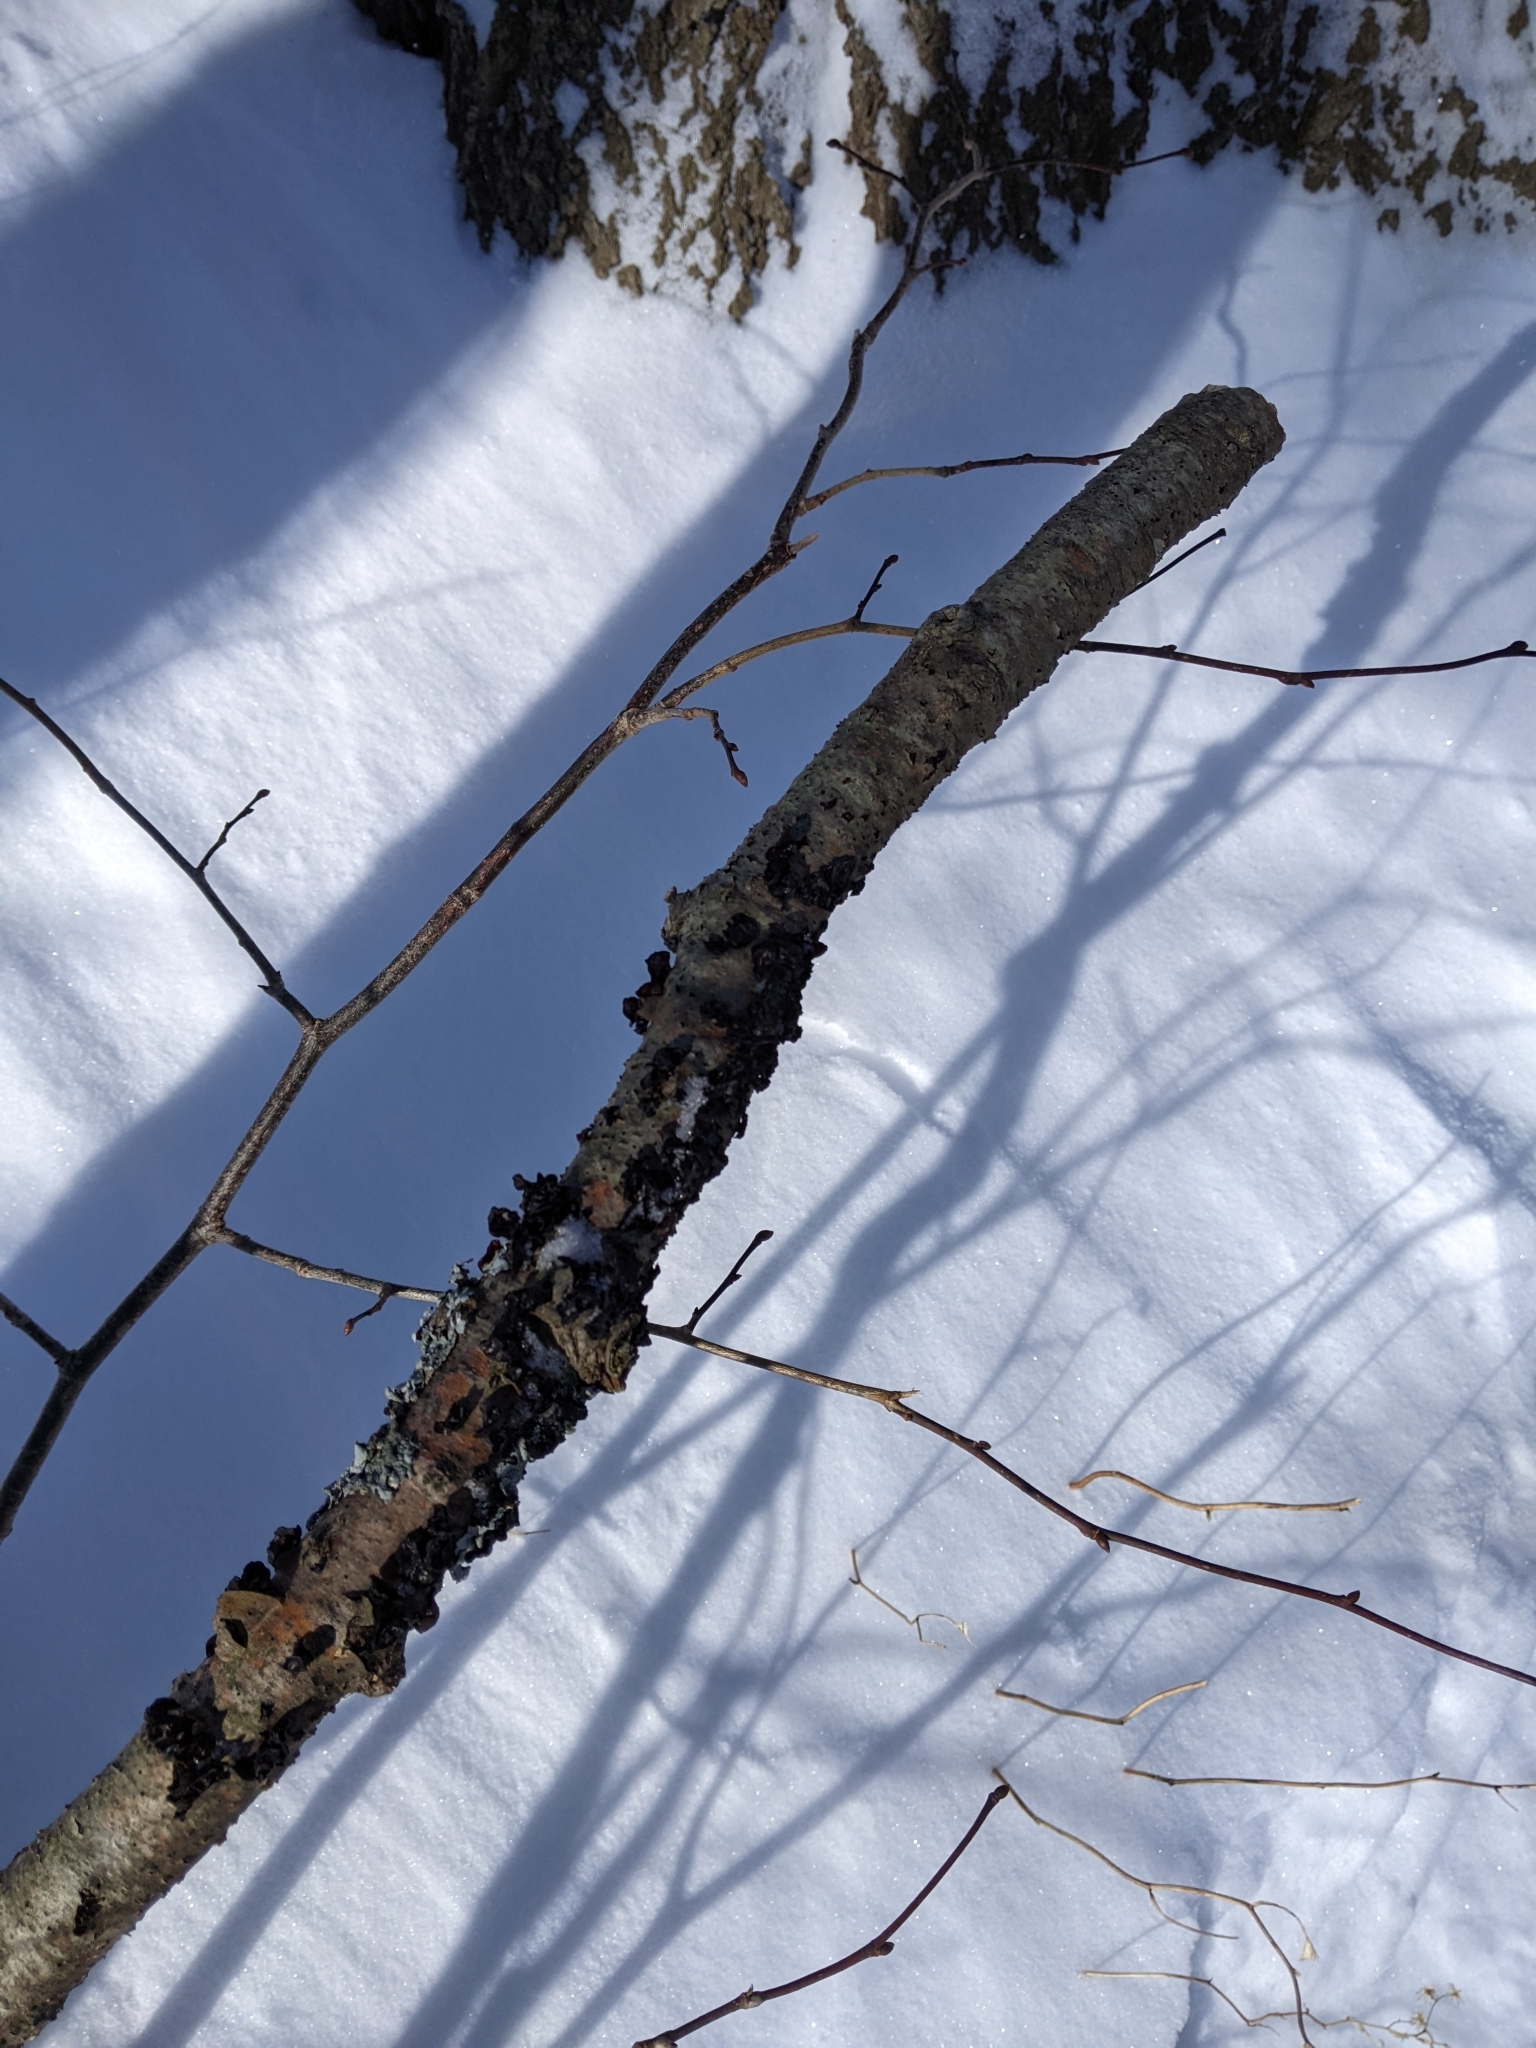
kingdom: Fungi
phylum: Basidiomycota
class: Agaricomycetes
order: Auriculariales
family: Auriculariaceae
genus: Exidia
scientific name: Exidia
